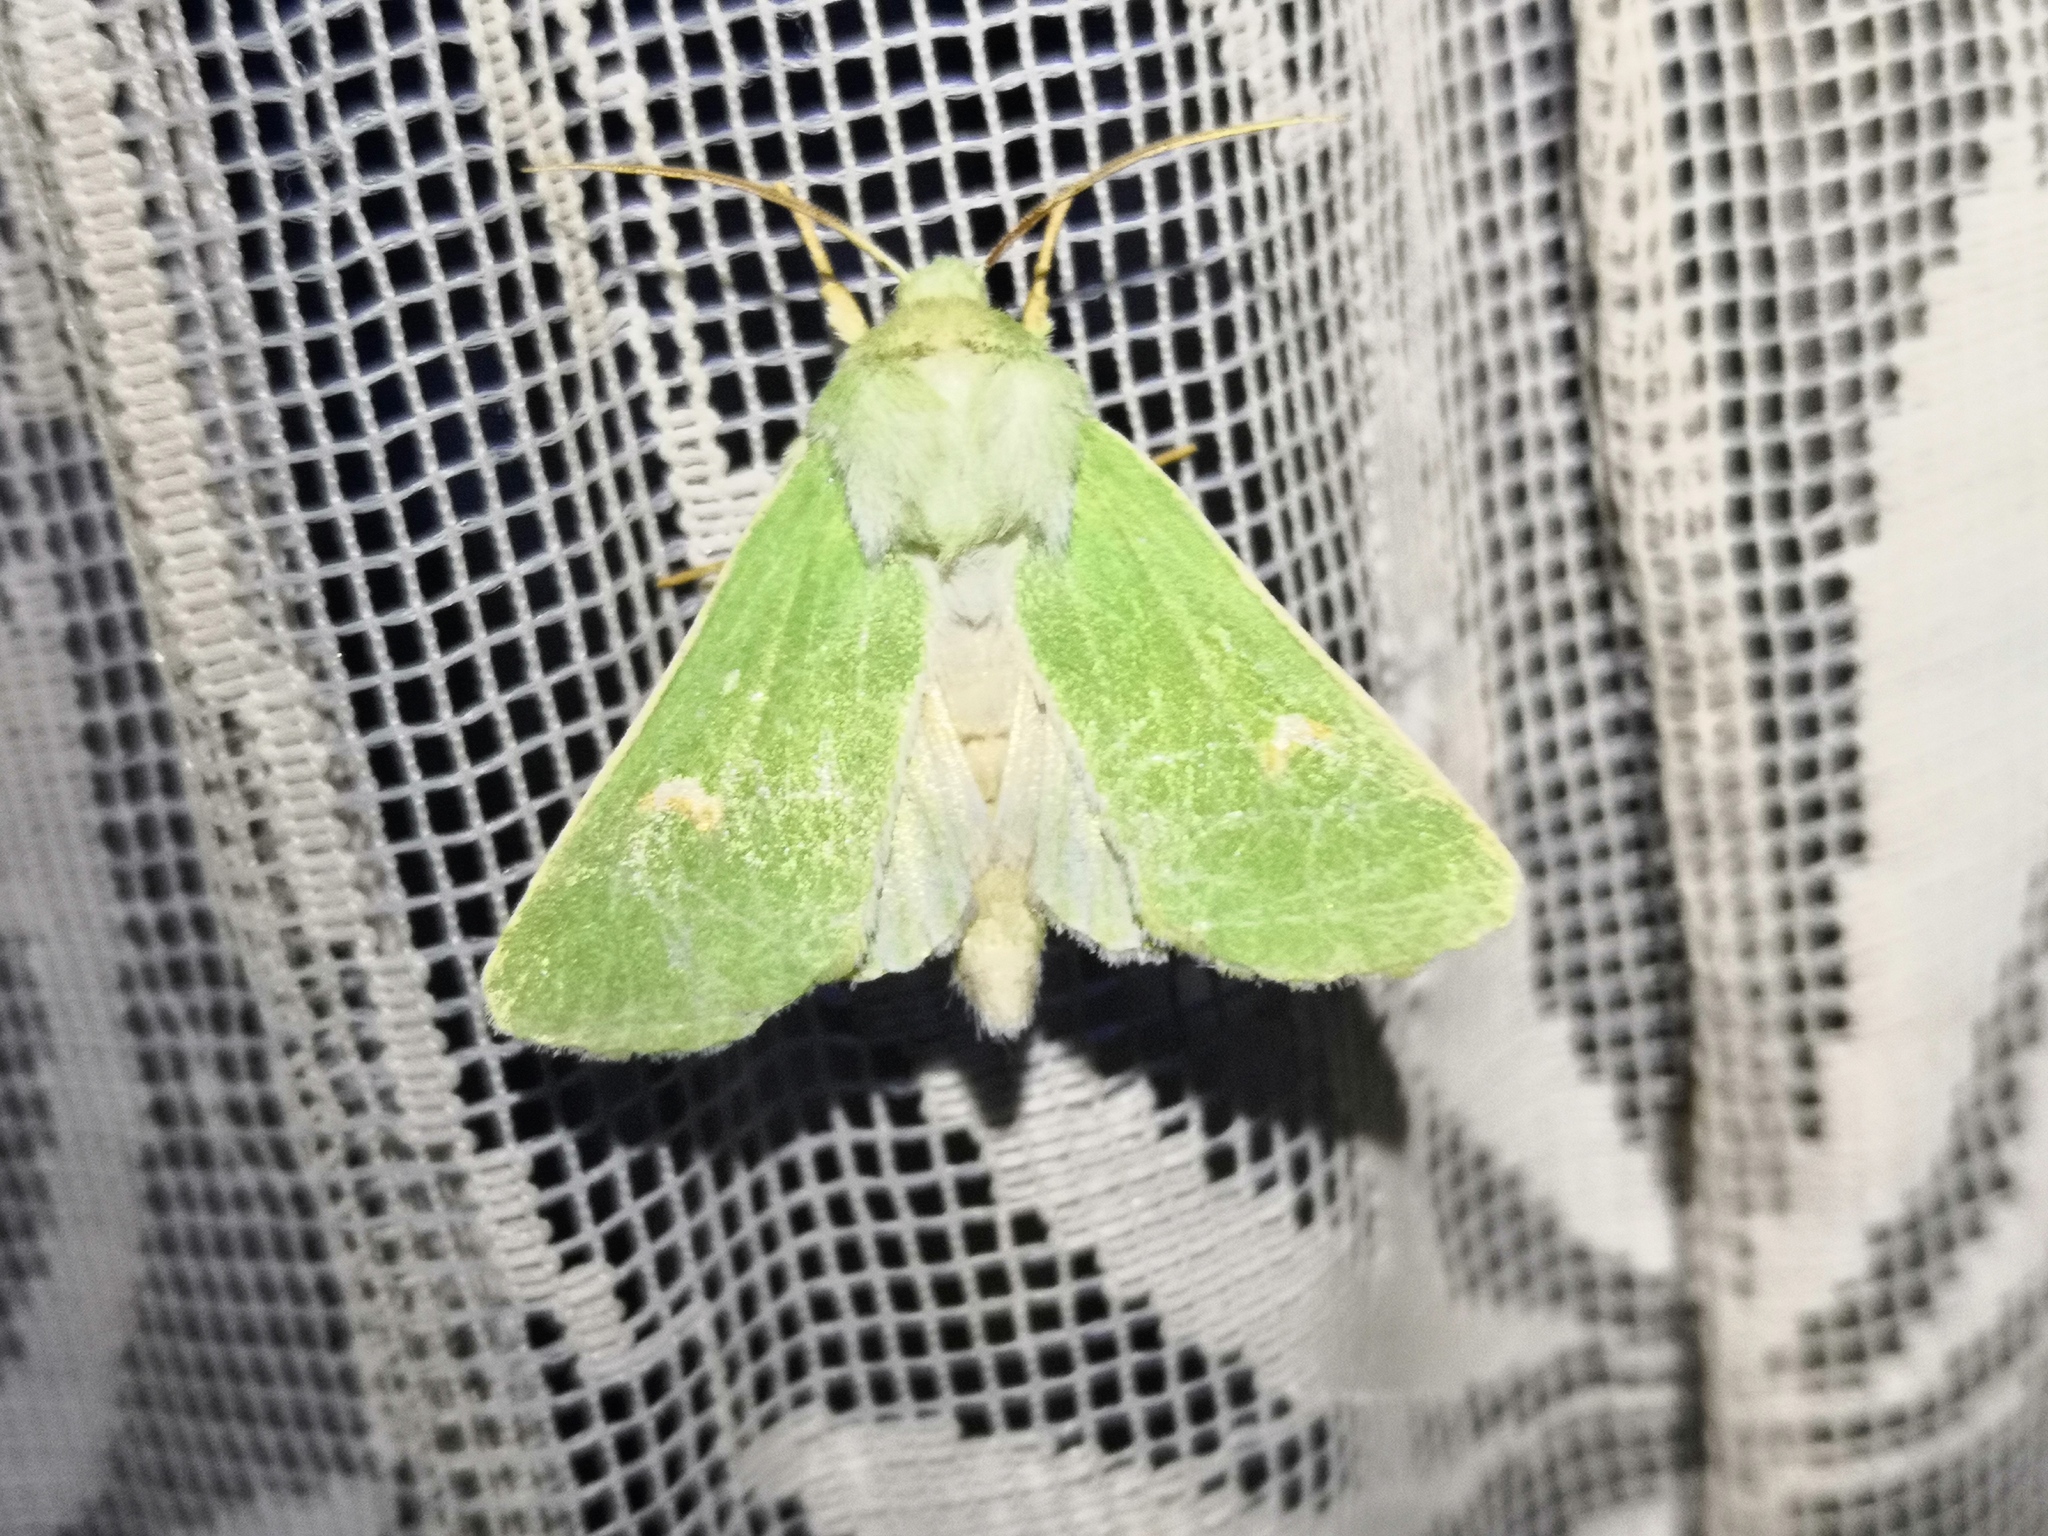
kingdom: Animalia
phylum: Arthropoda
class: Insecta
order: Lepidoptera
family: Noctuidae
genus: Calamia
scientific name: Calamia tridens
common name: Burren green
